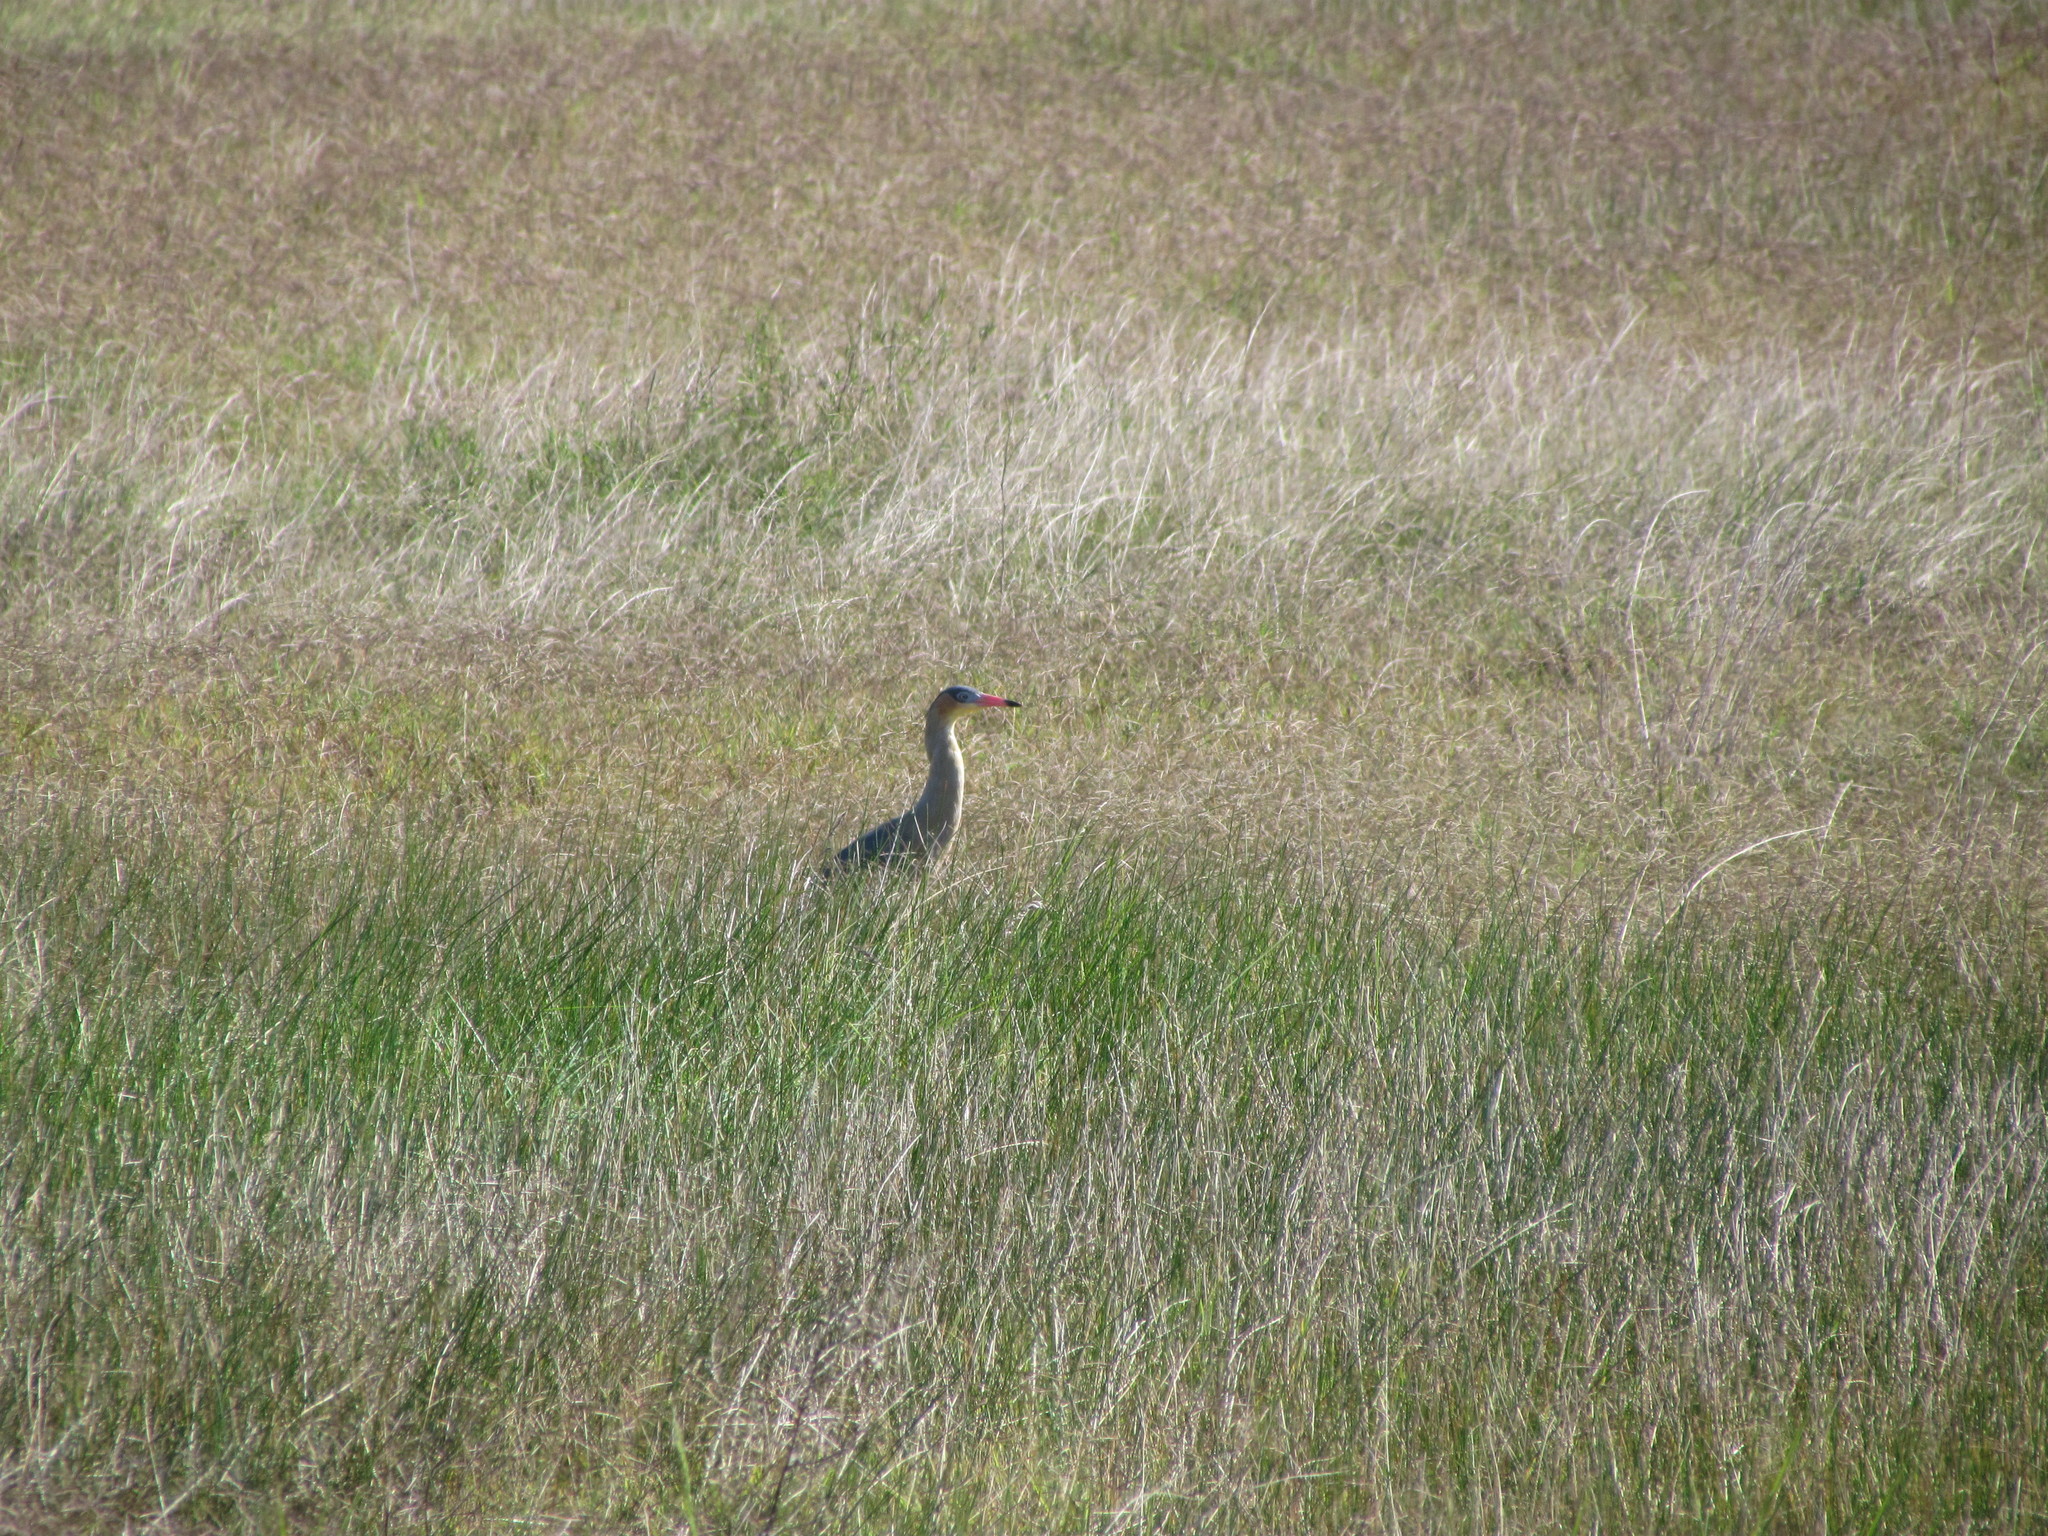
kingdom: Animalia
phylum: Chordata
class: Aves
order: Pelecaniformes
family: Ardeidae
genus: Syrigma
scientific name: Syrigma sibilatrix
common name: Whistling heron
